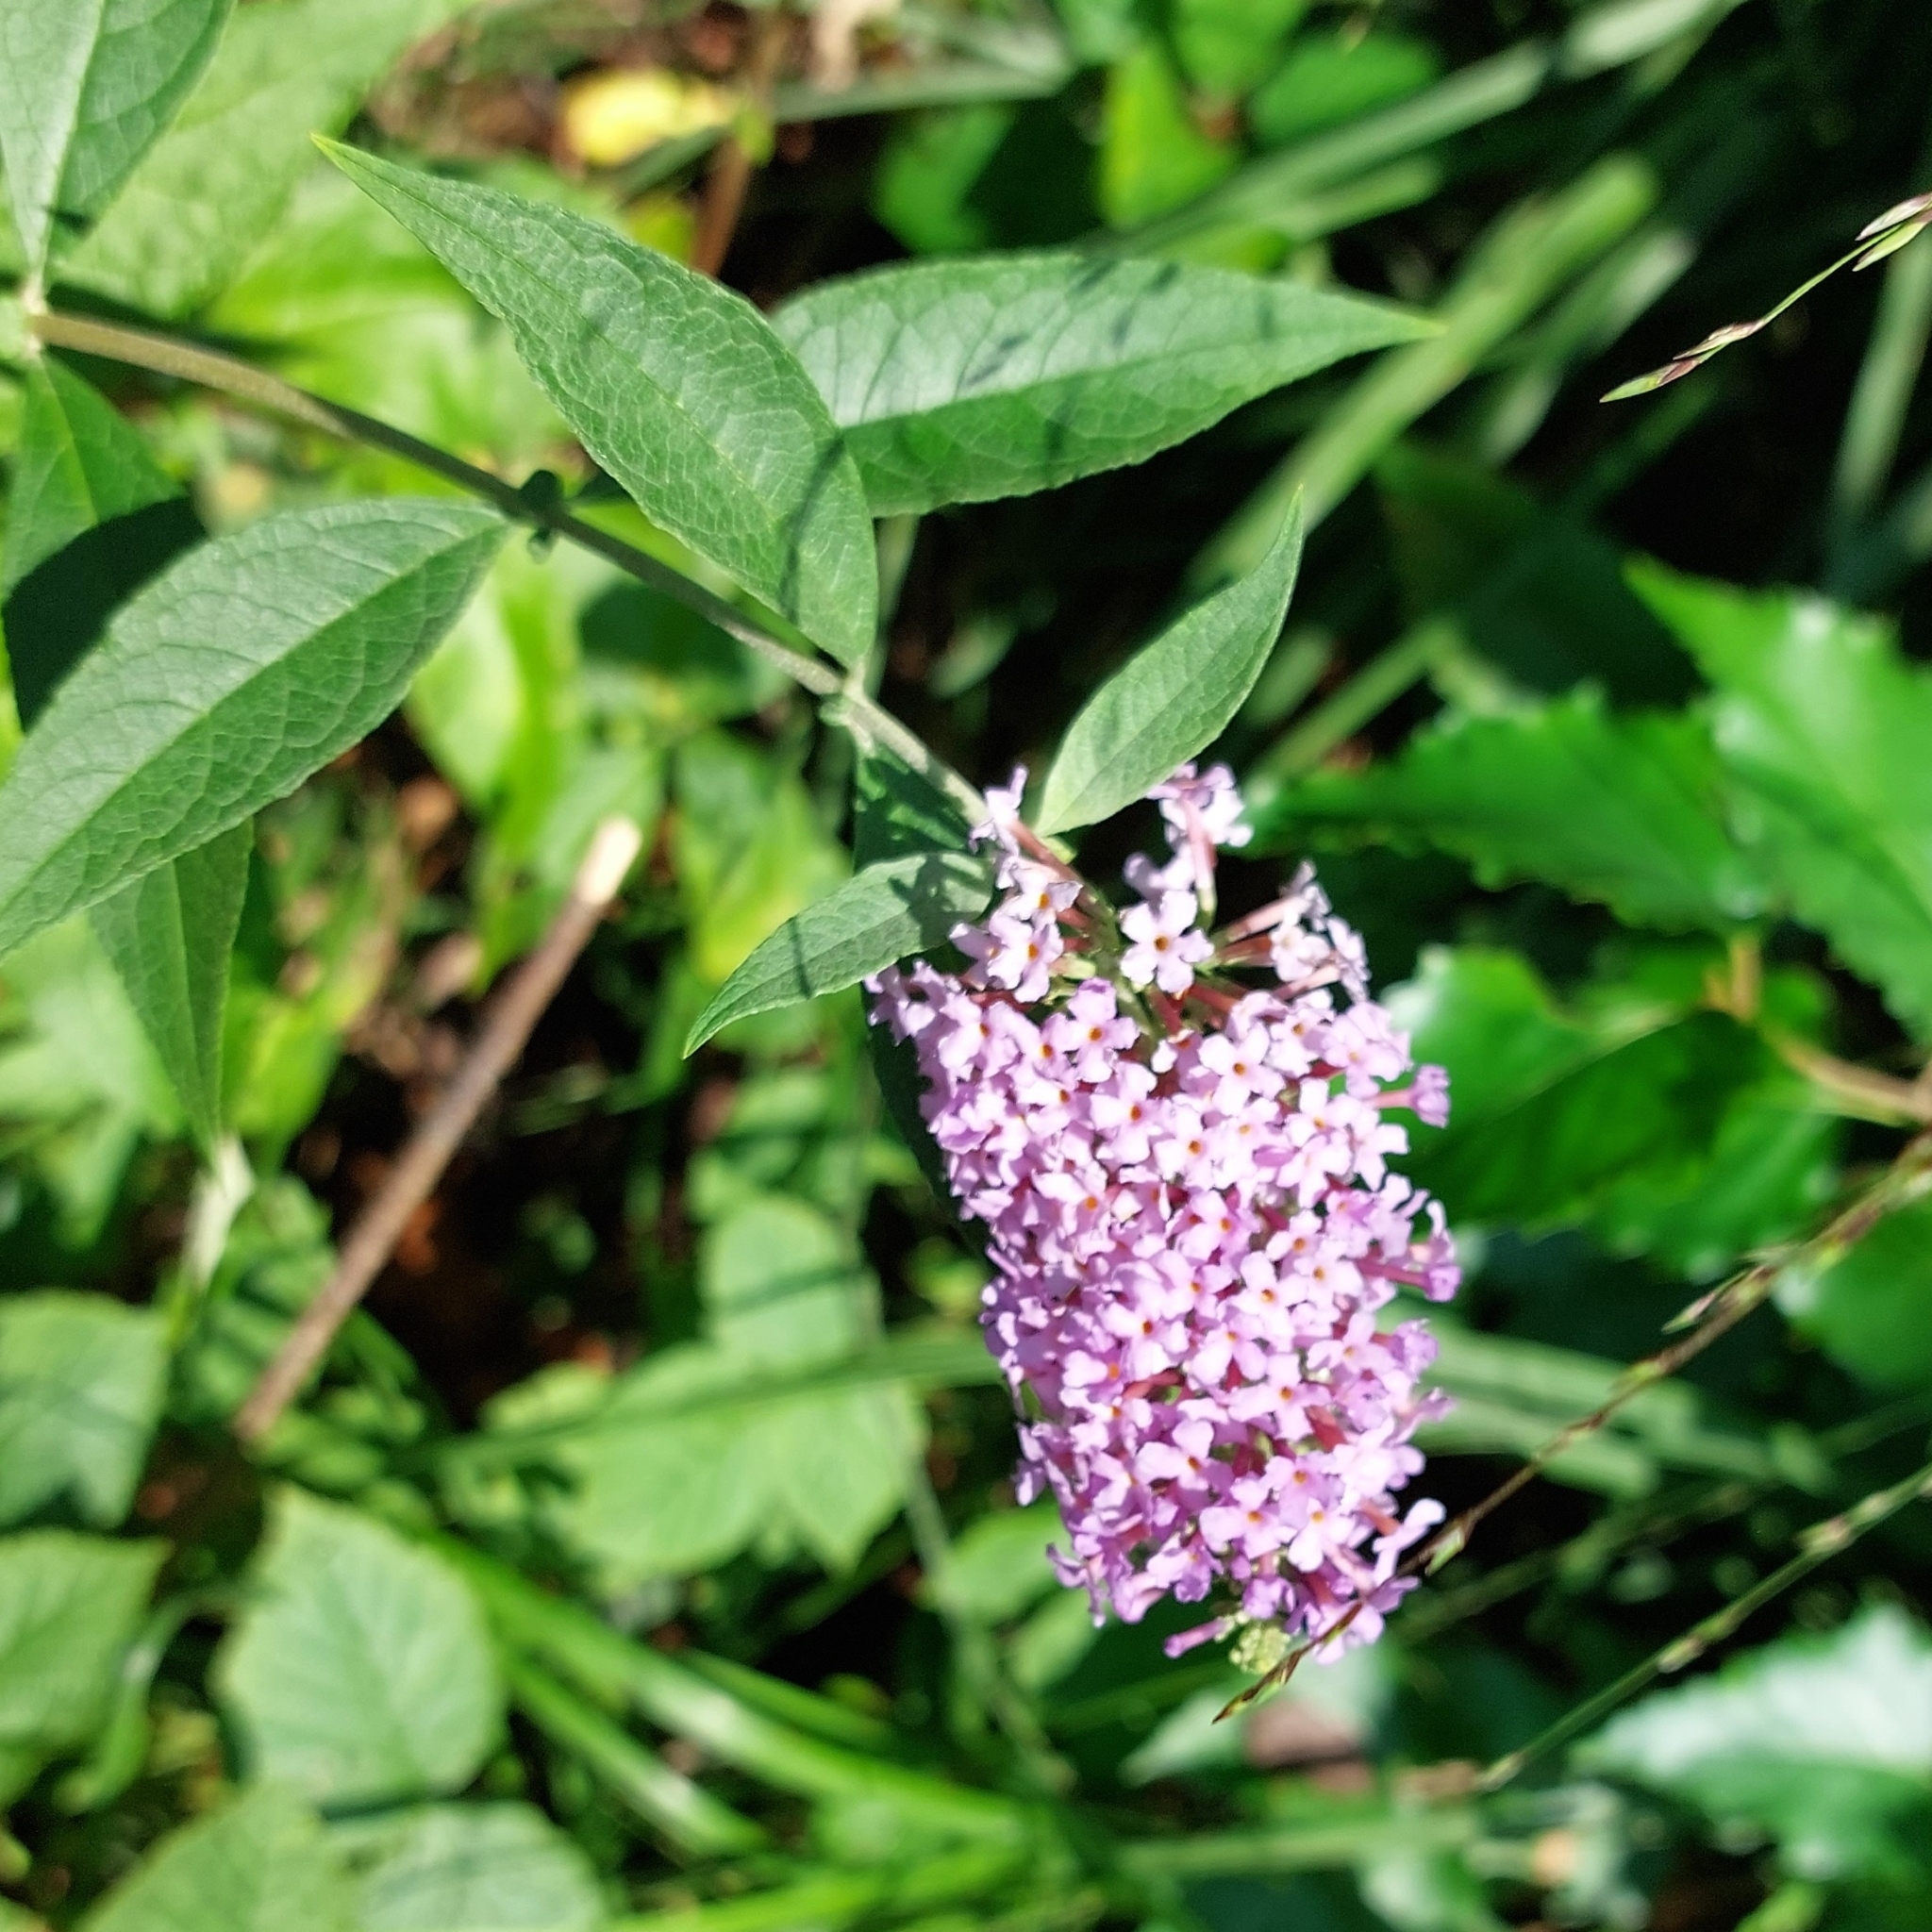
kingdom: Plantae
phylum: Tracheophyta
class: Magnoliopsida
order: Lamiales
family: Scrophulariaceae
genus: Buddleja
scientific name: Buddleja davidii
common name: Butterfly-bush
